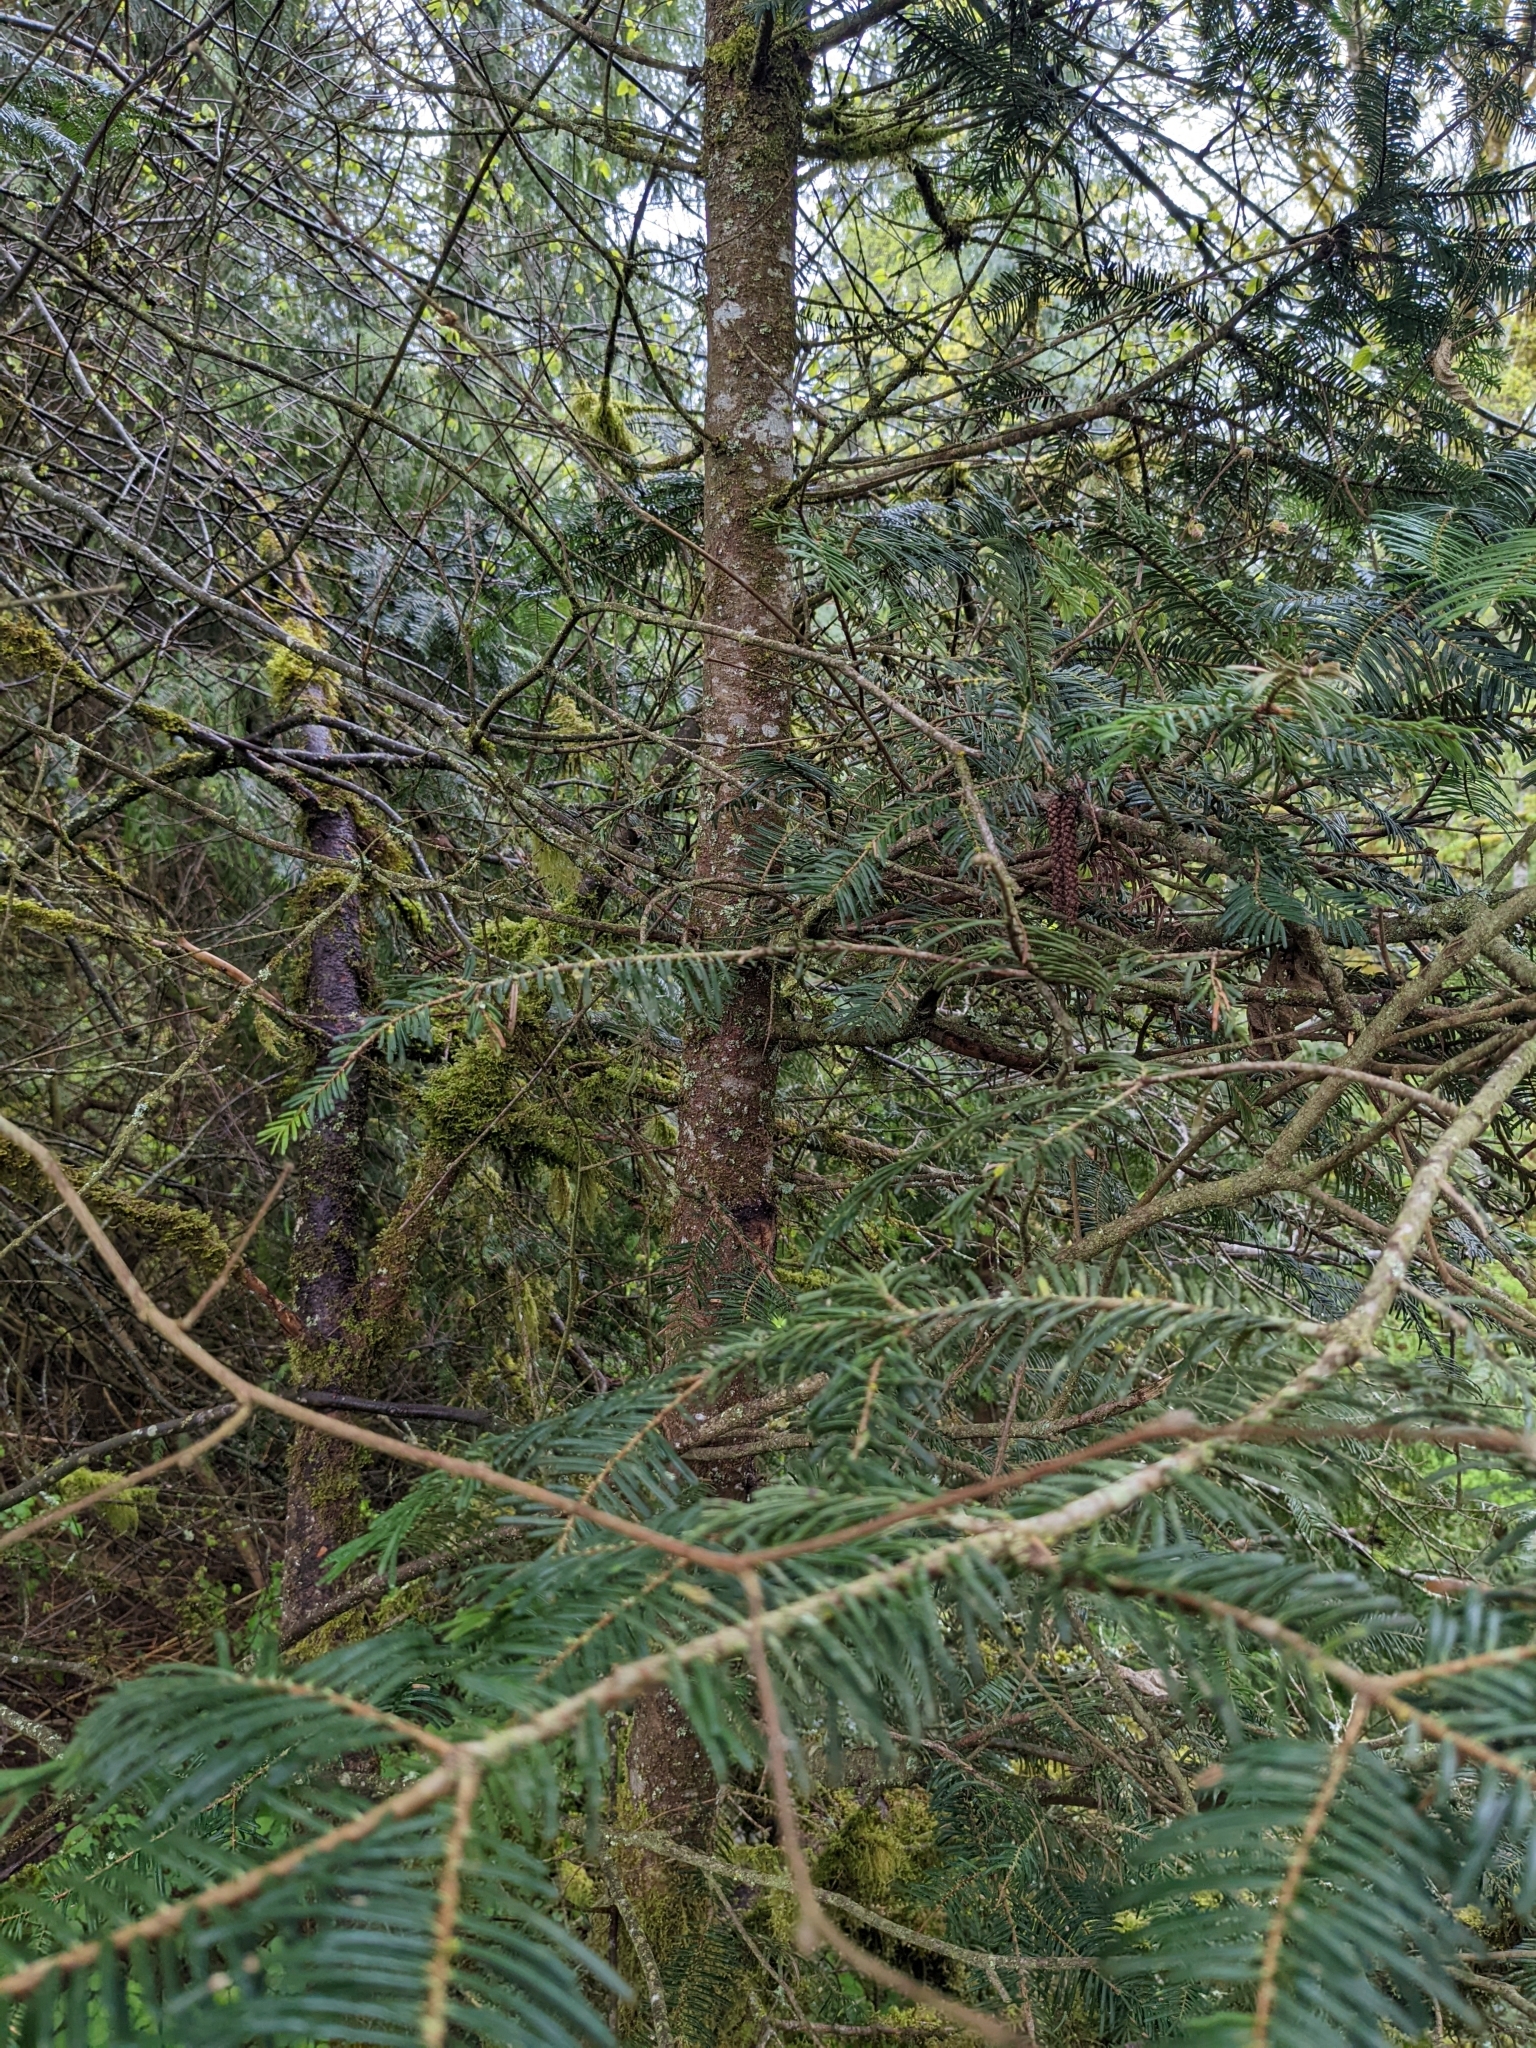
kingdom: Plantae
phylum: Tracheophyta
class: Pinopsida
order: Pinales
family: Pinaceae
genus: Abies
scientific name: Abies grandis
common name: Giant fir
